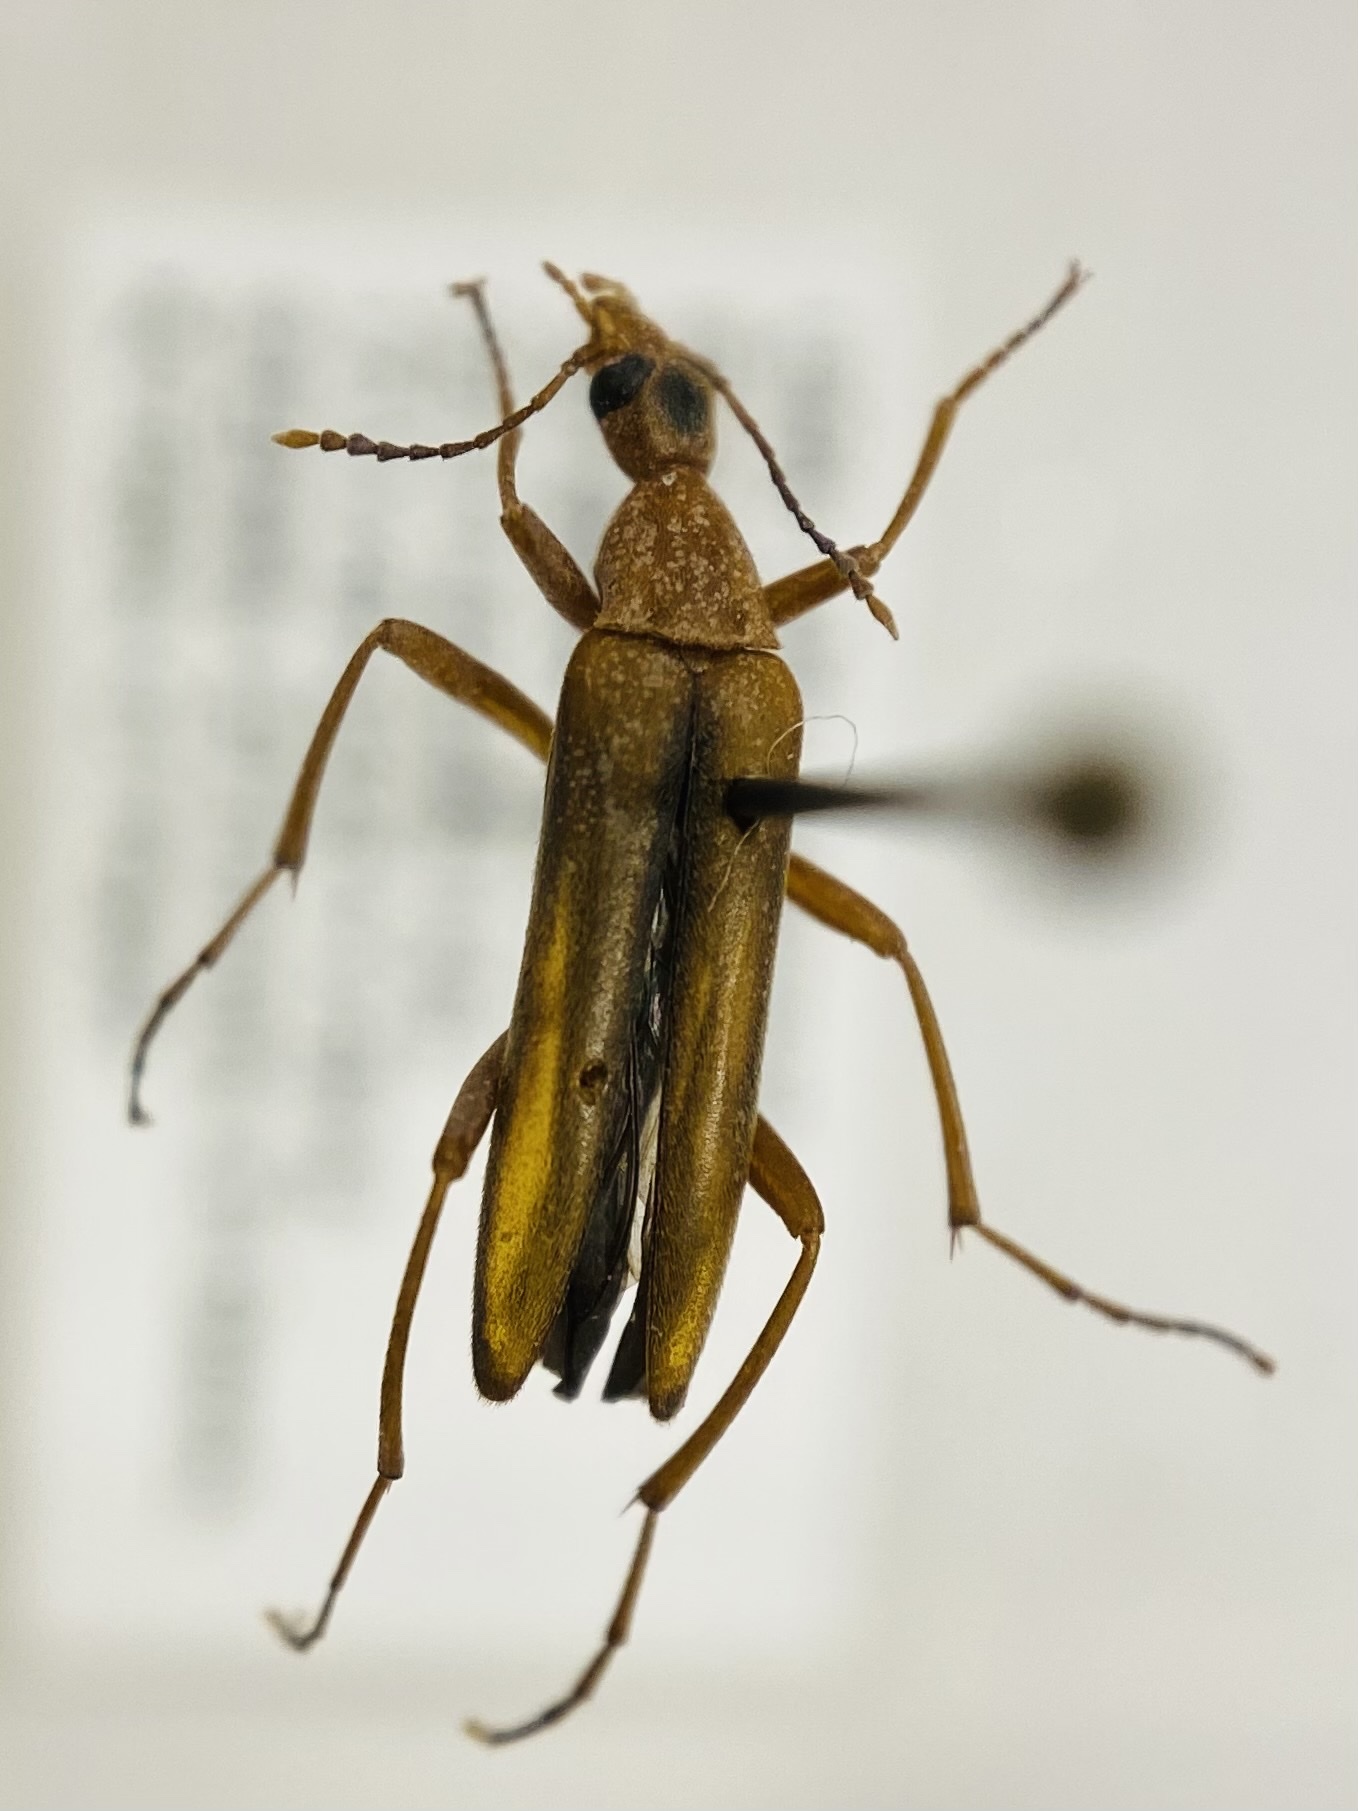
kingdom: Animalia
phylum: Arthropoda
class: Insecta
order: Coleoptera
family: Stenotrachelidae
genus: Cephaloon
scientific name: Cephaloon lepturides
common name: False leptura beetle
